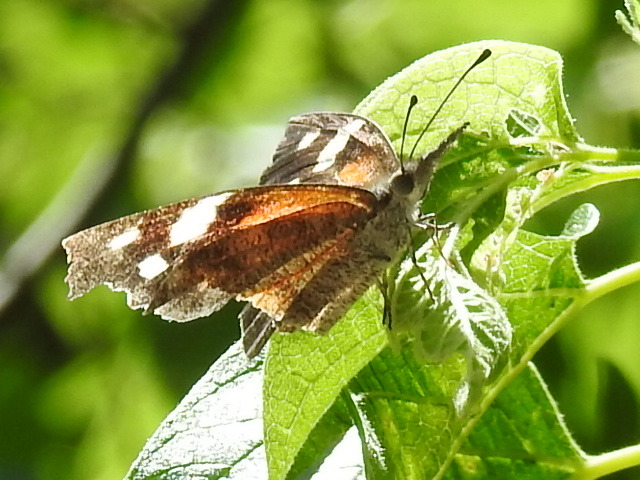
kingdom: Animalia
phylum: Arthropoda
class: Insecta
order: Lepidoptera
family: Nymphalidae
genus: Libytheana
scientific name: Libytheana carinenta
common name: American snout
